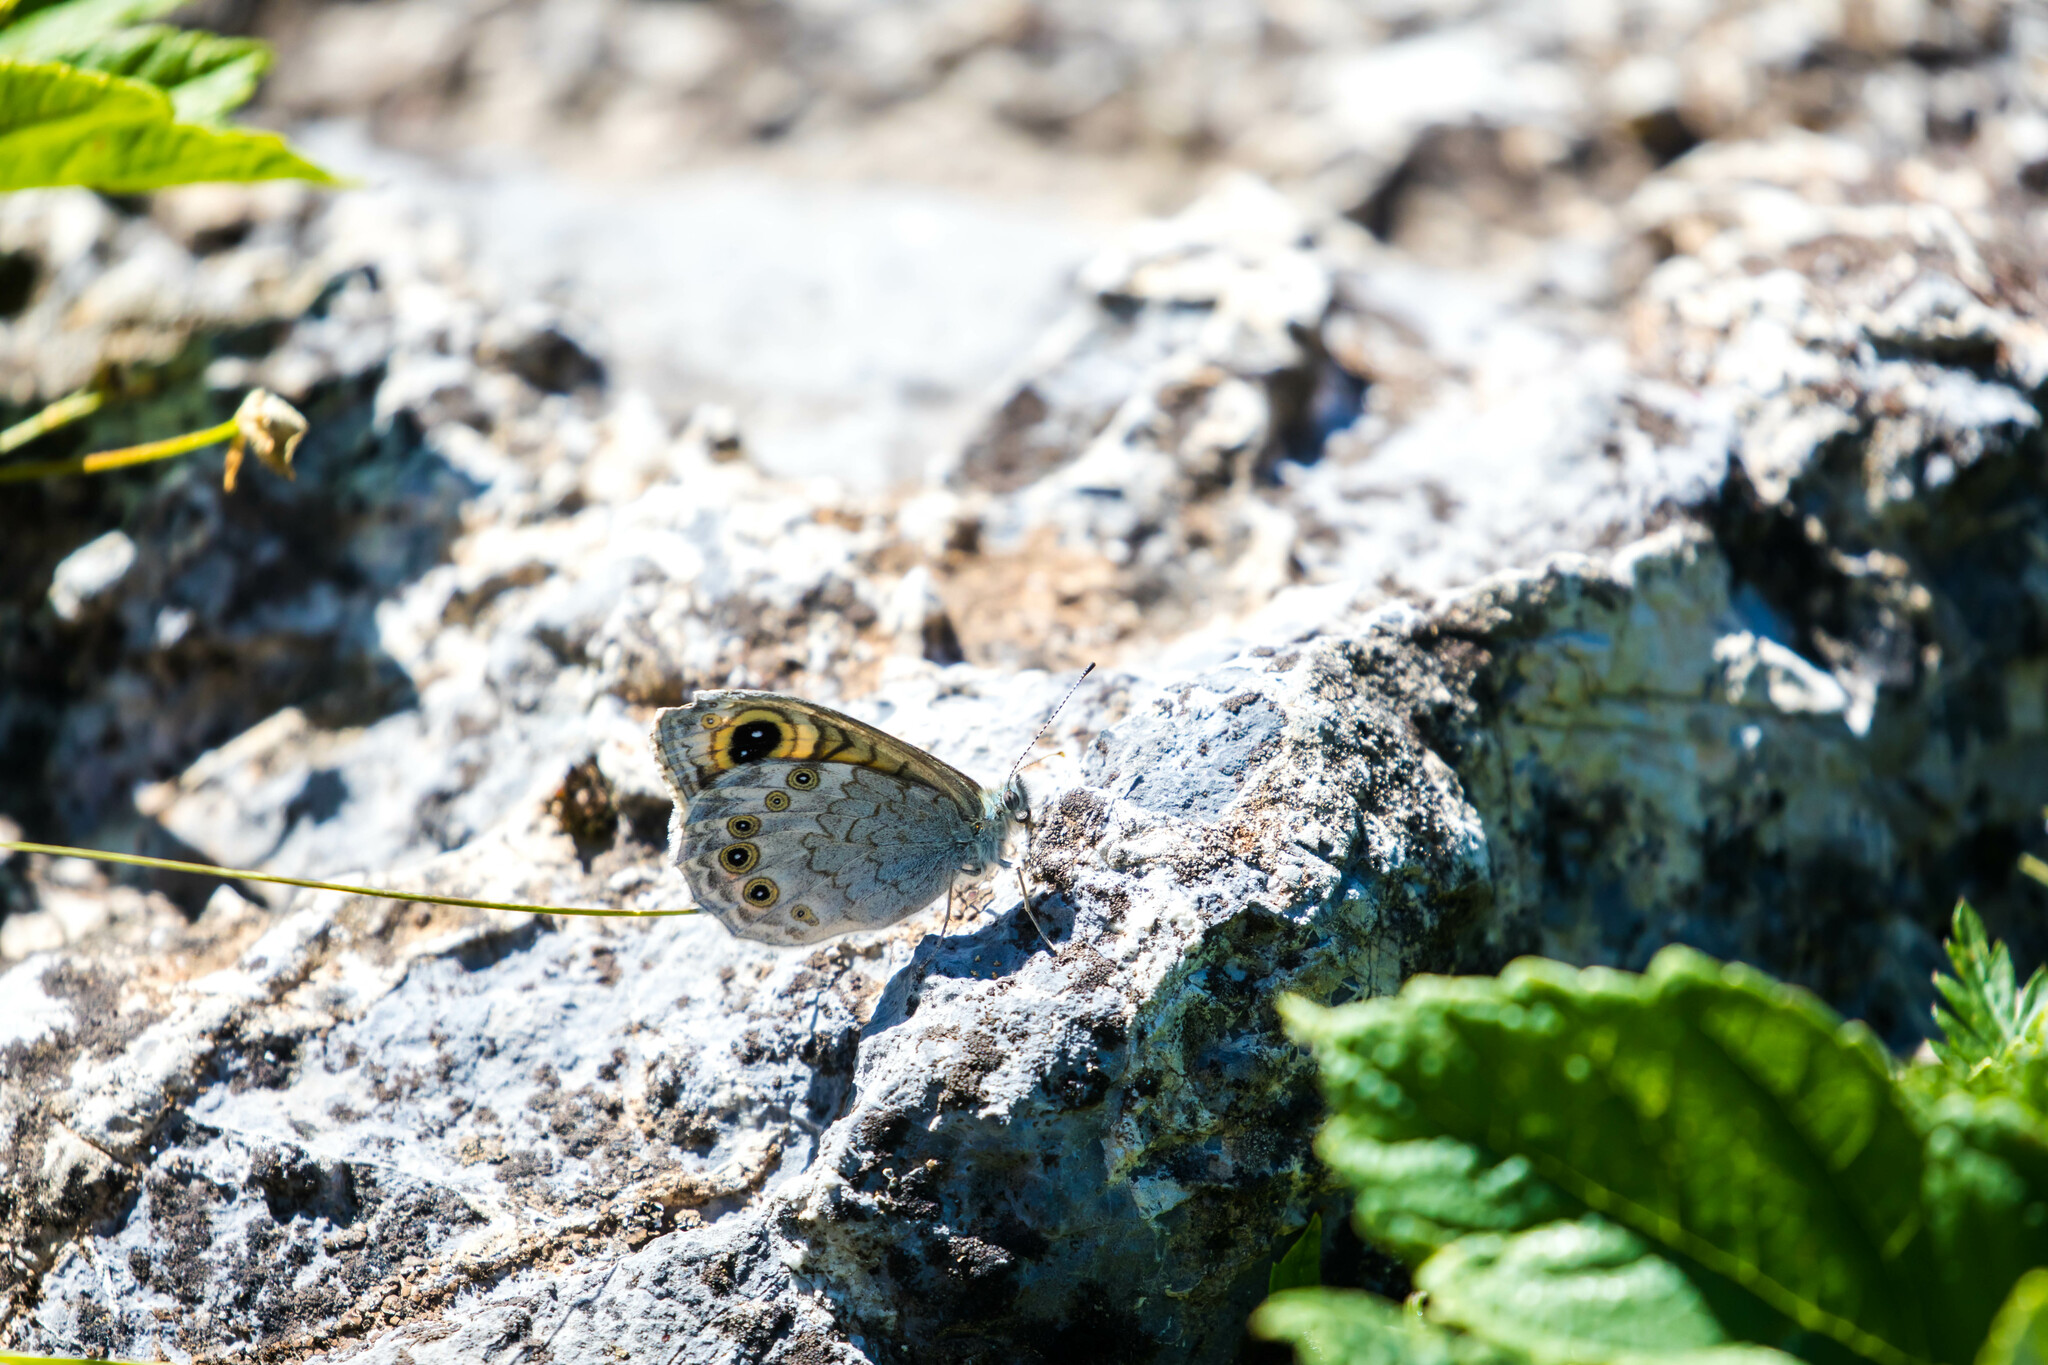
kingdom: Animalia
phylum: Arthropoda
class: Insecta
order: Lepidoptera
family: Nymphalidae
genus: Pararge
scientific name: Pararge Lasiommata maera
